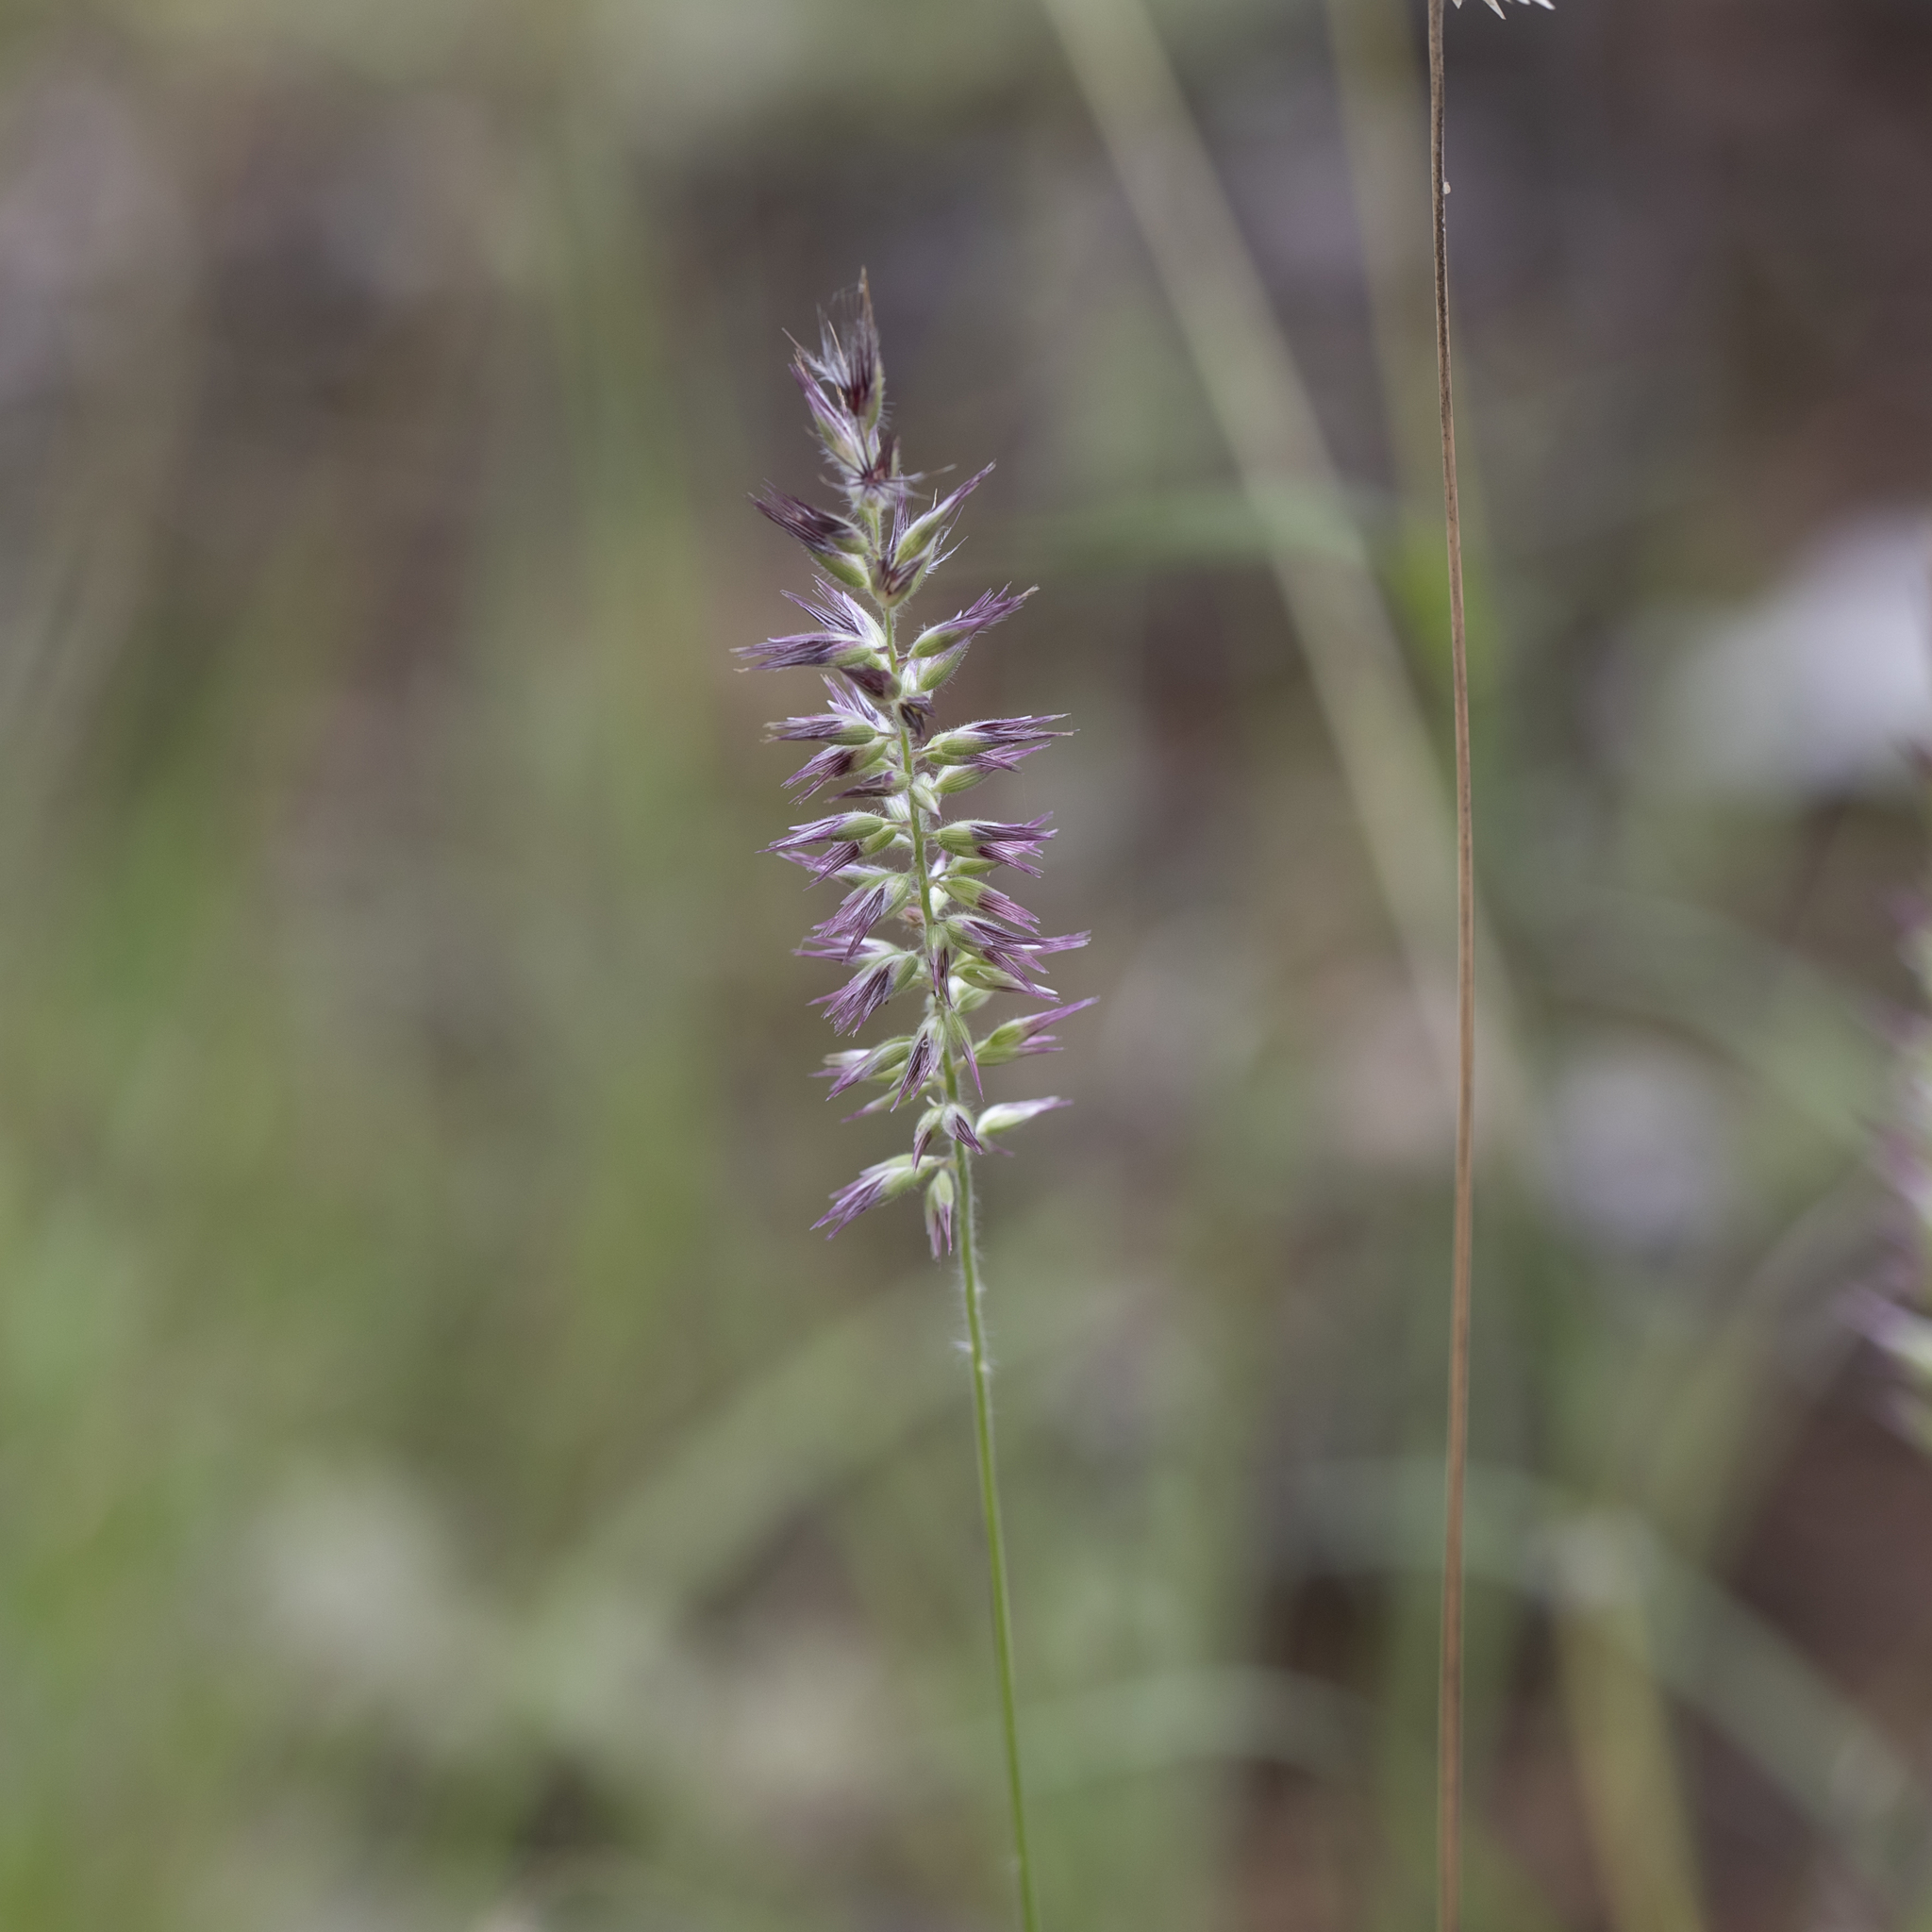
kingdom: Plantae
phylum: Tracheophyta
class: Liliopsida
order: Poales
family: Poaceae
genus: Enneapogon
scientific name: Enneapogon purpurascens
